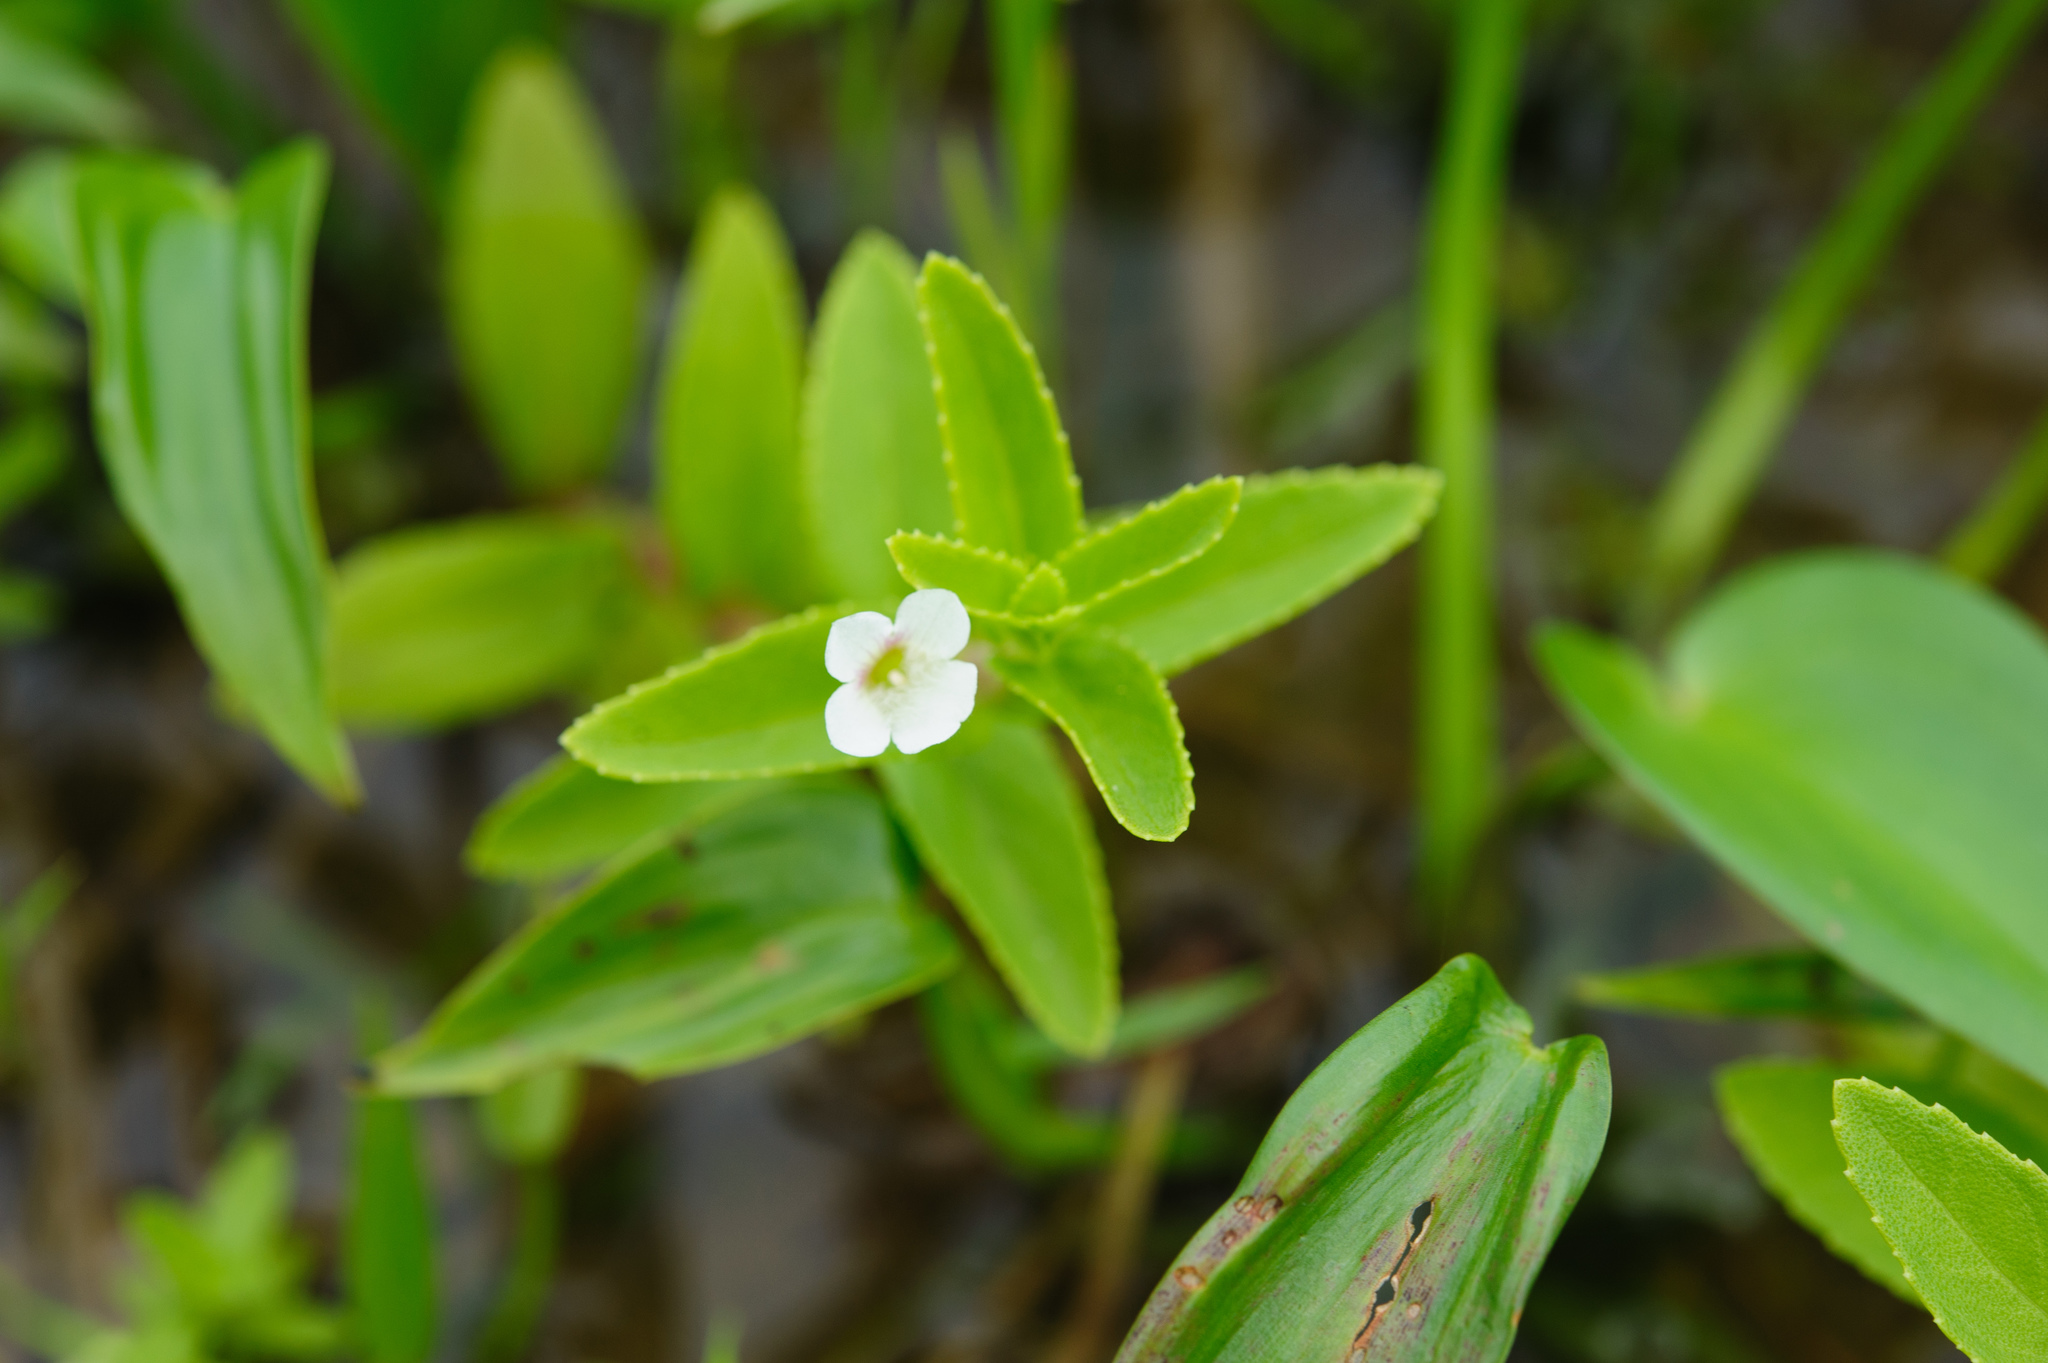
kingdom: Plantae
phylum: Tracheophyta
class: Magnoliopsida
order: Lamiales
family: Plantaginaceae
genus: Limnophila
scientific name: Limnophila aromatica
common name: Finger grass
